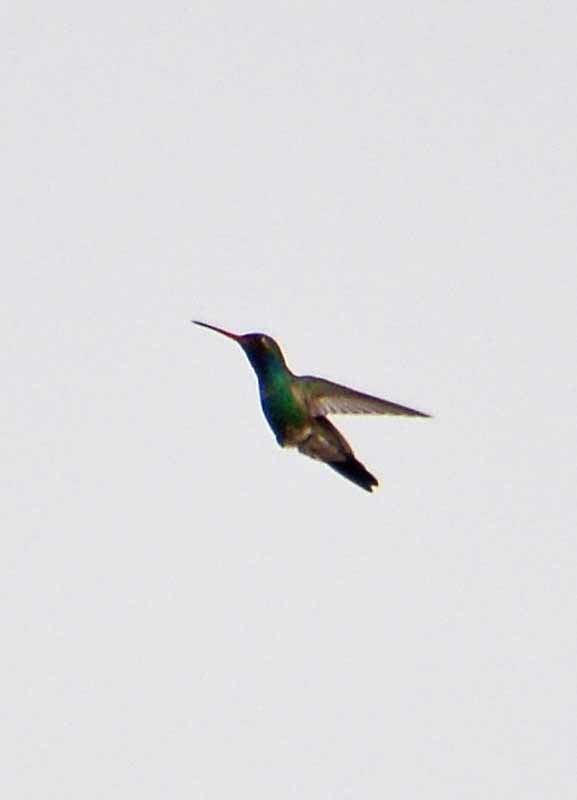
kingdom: Animalia
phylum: Chordata
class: Aves
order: Apodiformes
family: Trochilidae
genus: Cynanthus
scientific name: Cynanthus latirostris
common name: Broad-billed hummingbird
